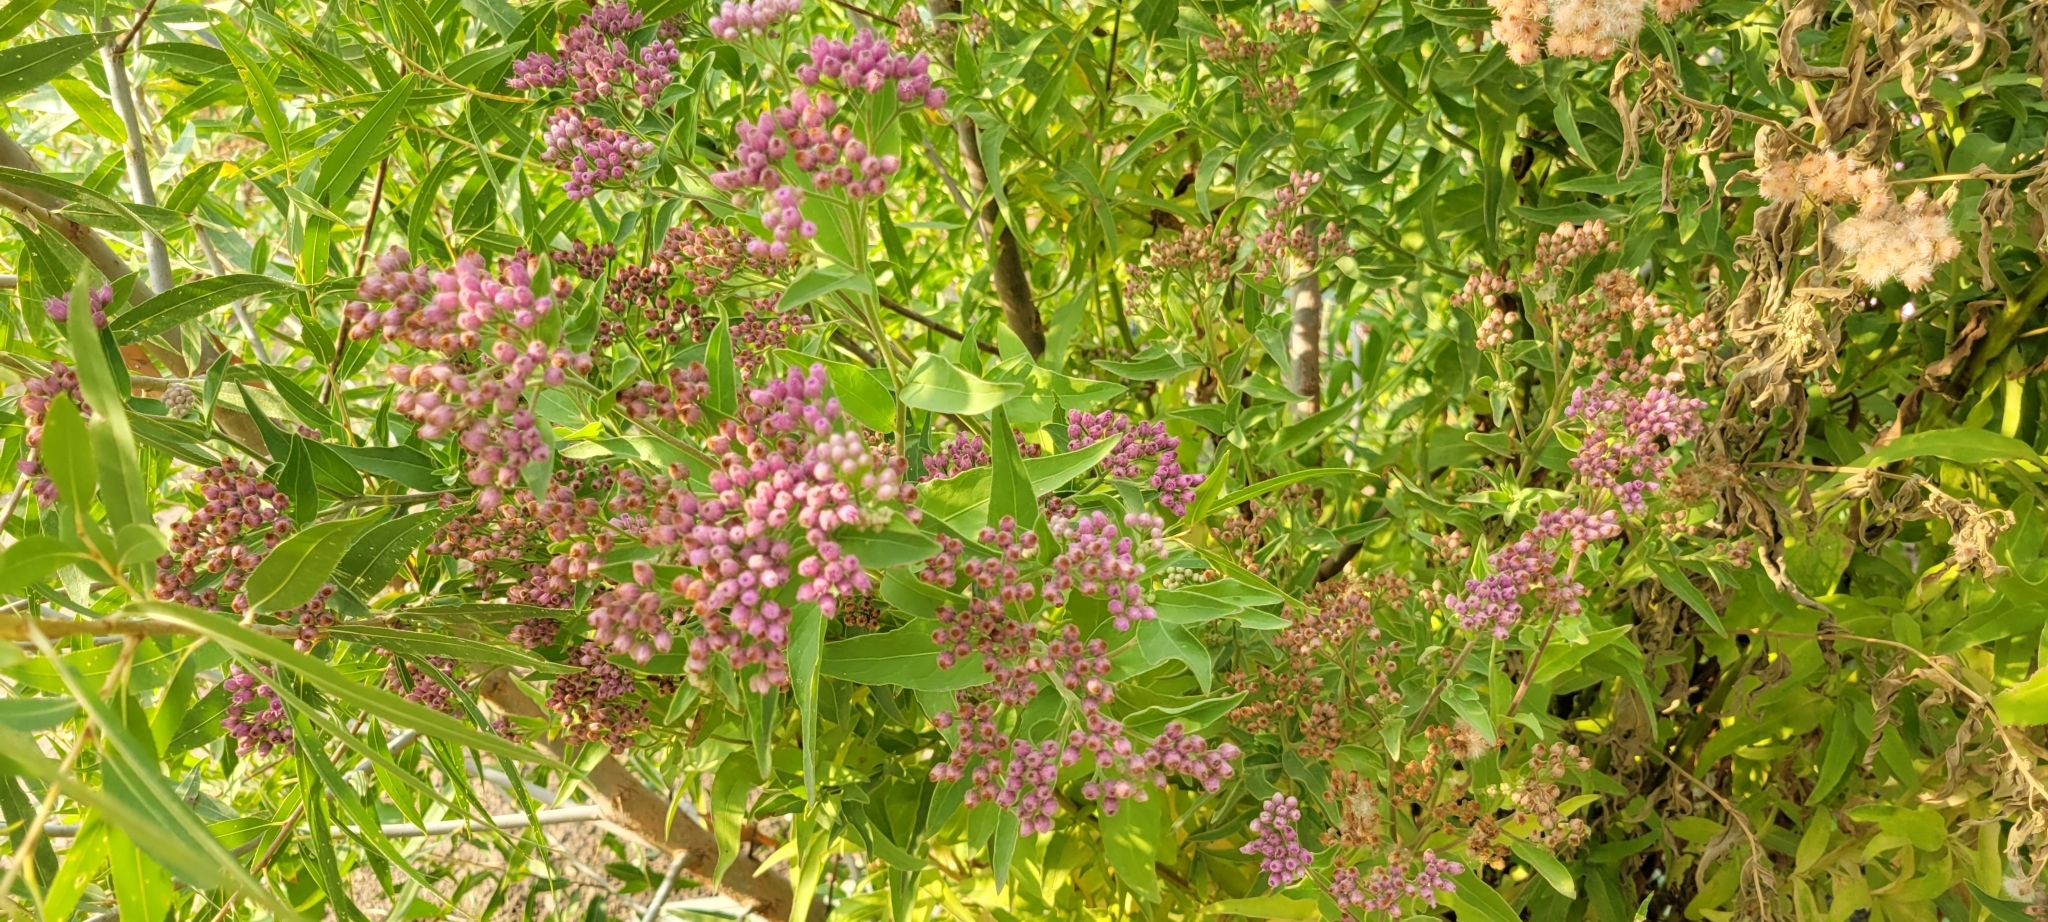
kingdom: Plantae
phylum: Tracheophyta
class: Magnoliopsida
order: Asterales
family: Asteraceae
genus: Pluchea
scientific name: Pluchea odorata
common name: Saltmarsh fleabane
